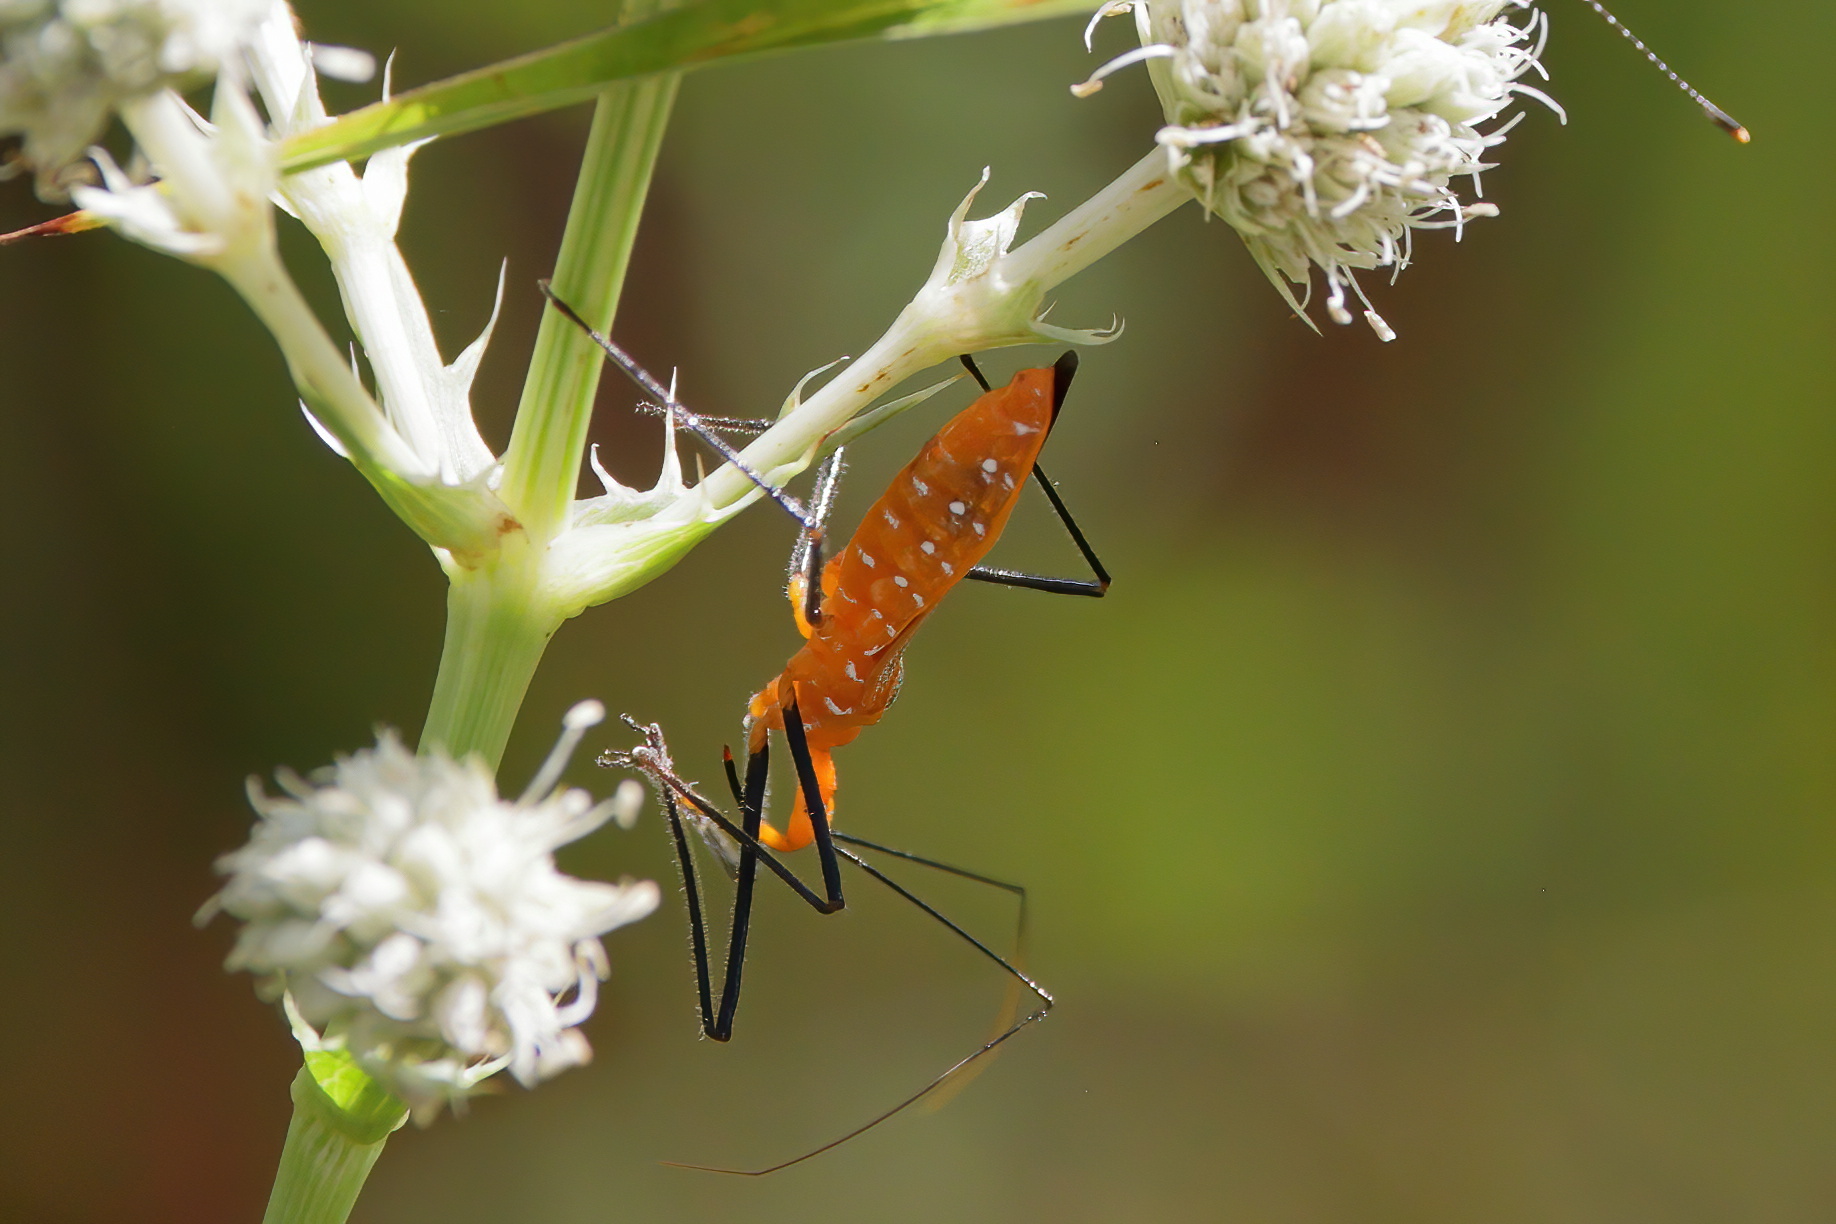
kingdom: Animalia
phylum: Arthropoda
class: Insecta
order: Hemiptera
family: Reduviidae
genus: Zelus
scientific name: Zelus longipes
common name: Milkweed assassin bug
